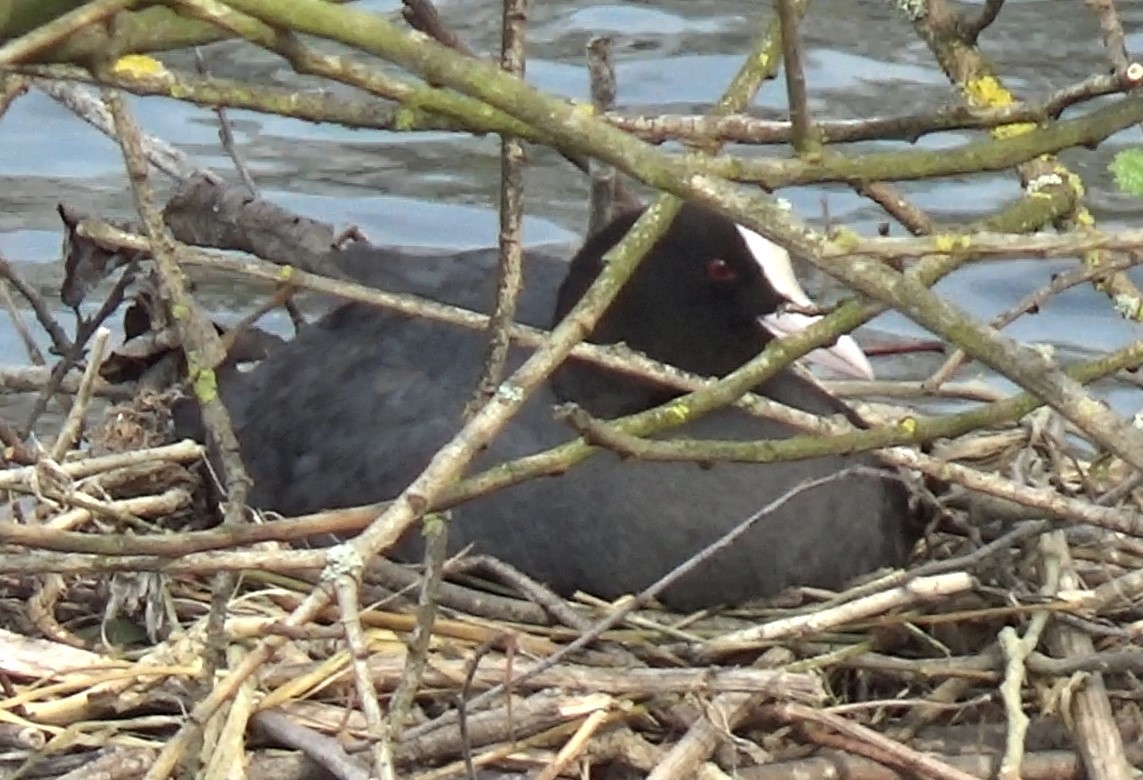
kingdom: Animalia
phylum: Chordata
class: Aves
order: Gruiformes
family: Rallidae
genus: Fulica
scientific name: Fulica atra
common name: Eurasian coot
